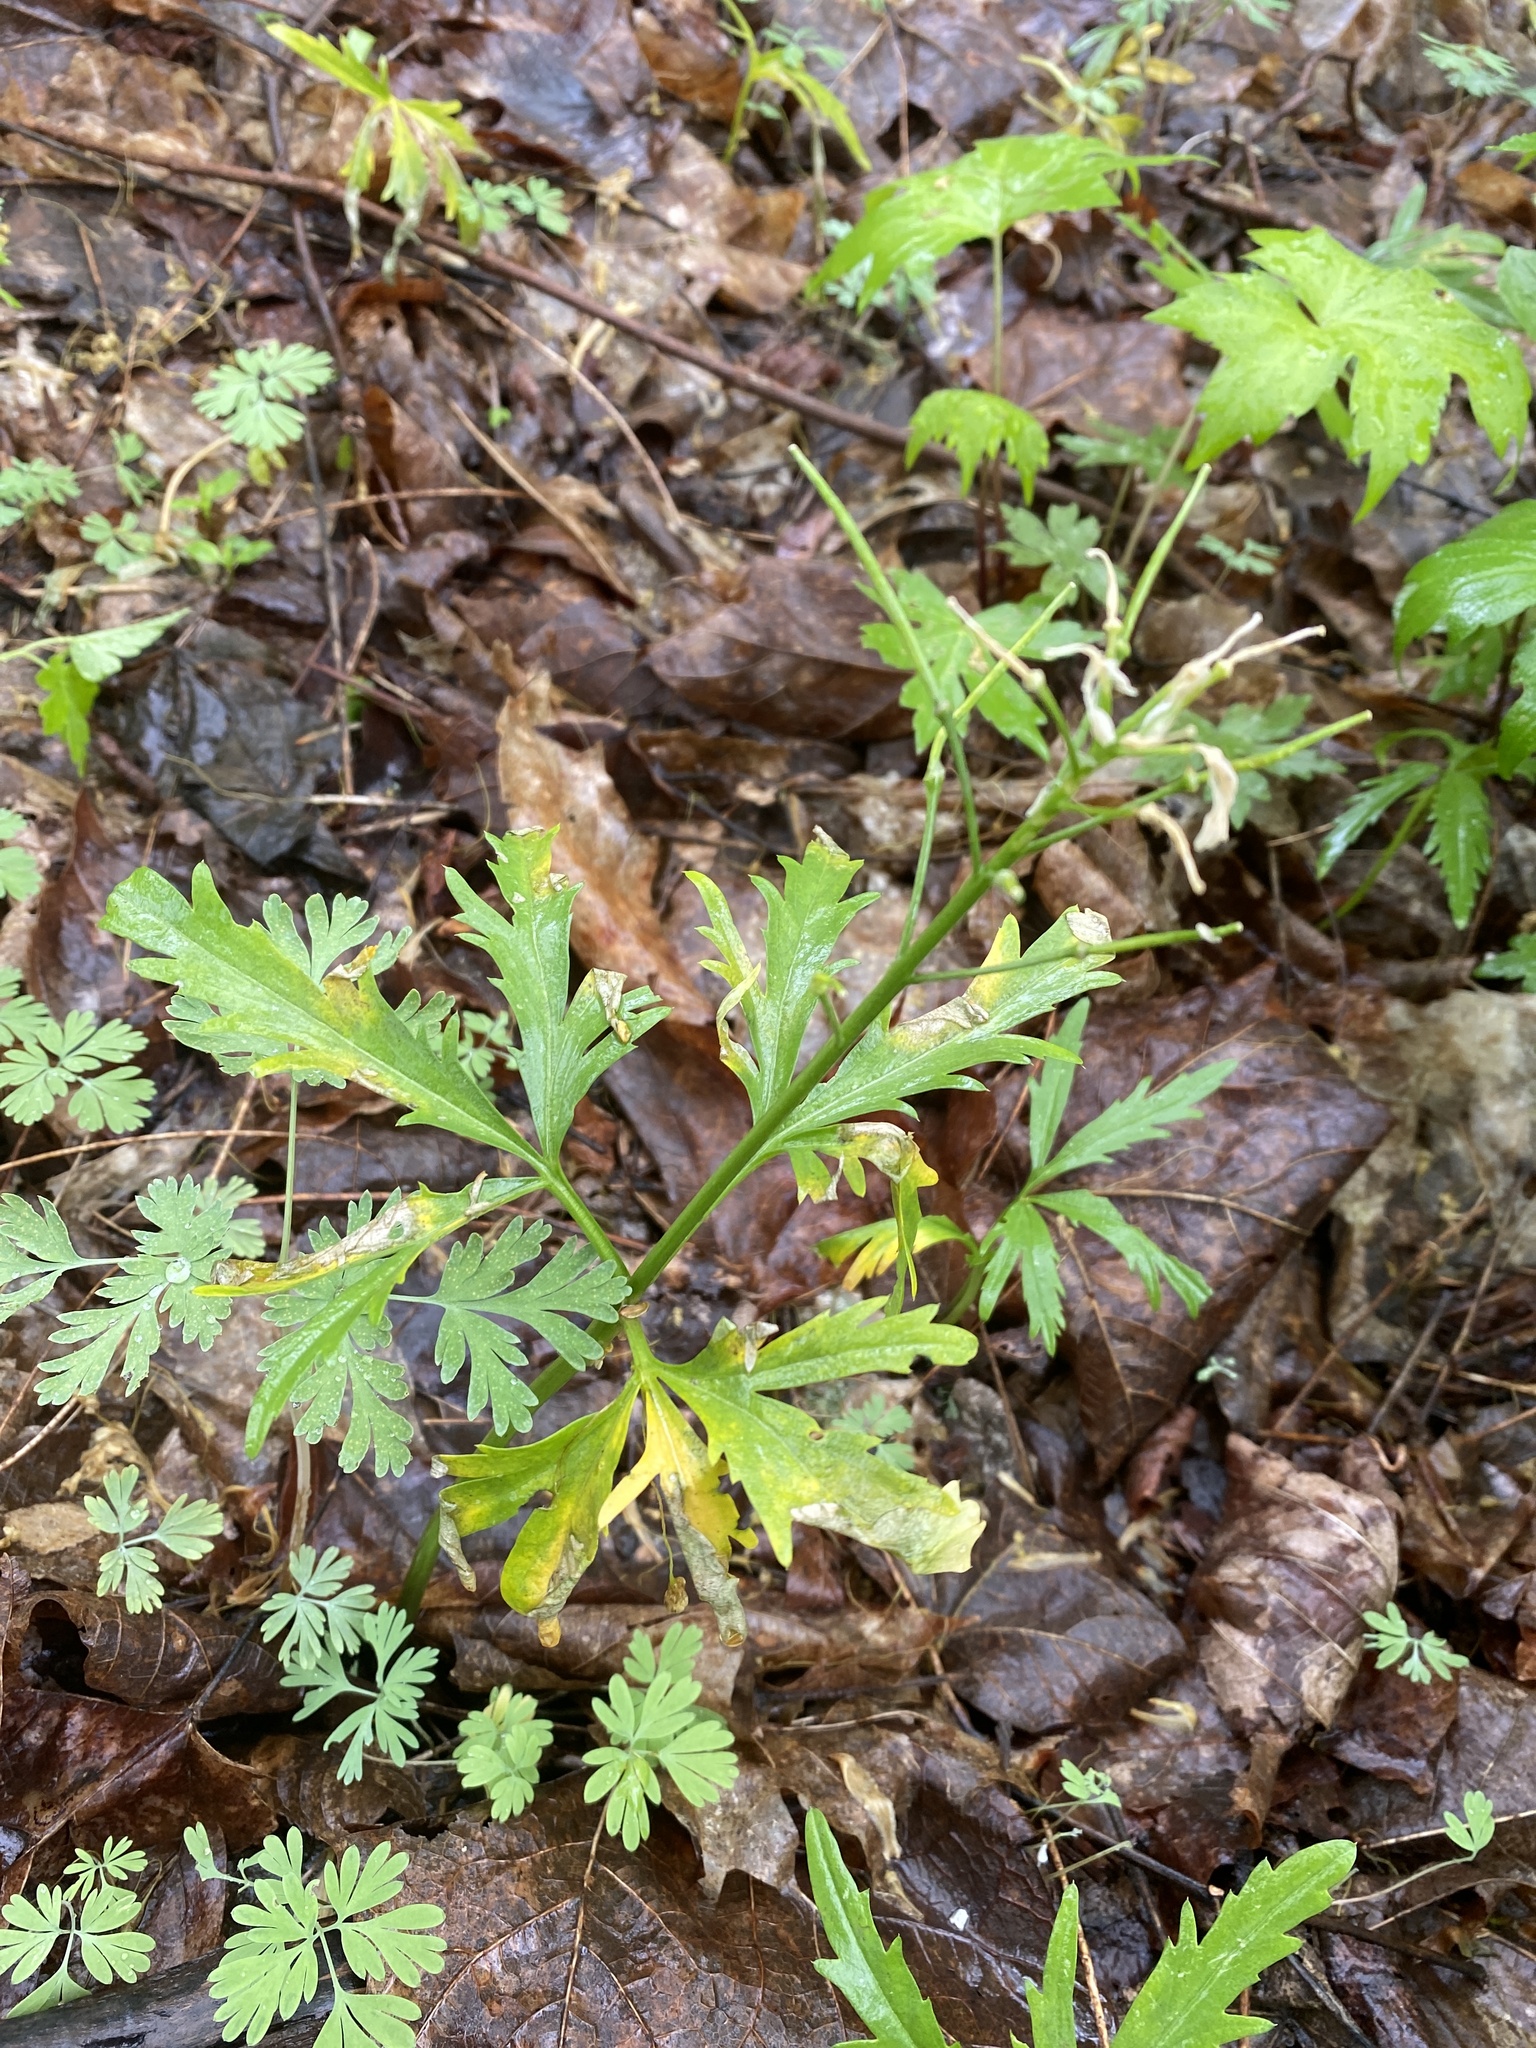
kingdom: Plantae
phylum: Tracheophyta
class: Magnoliopsida
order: Brassicales
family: Brassicaceae
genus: Cardamine
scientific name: Cardamine concatenata
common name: Cut-leaf toothcup
